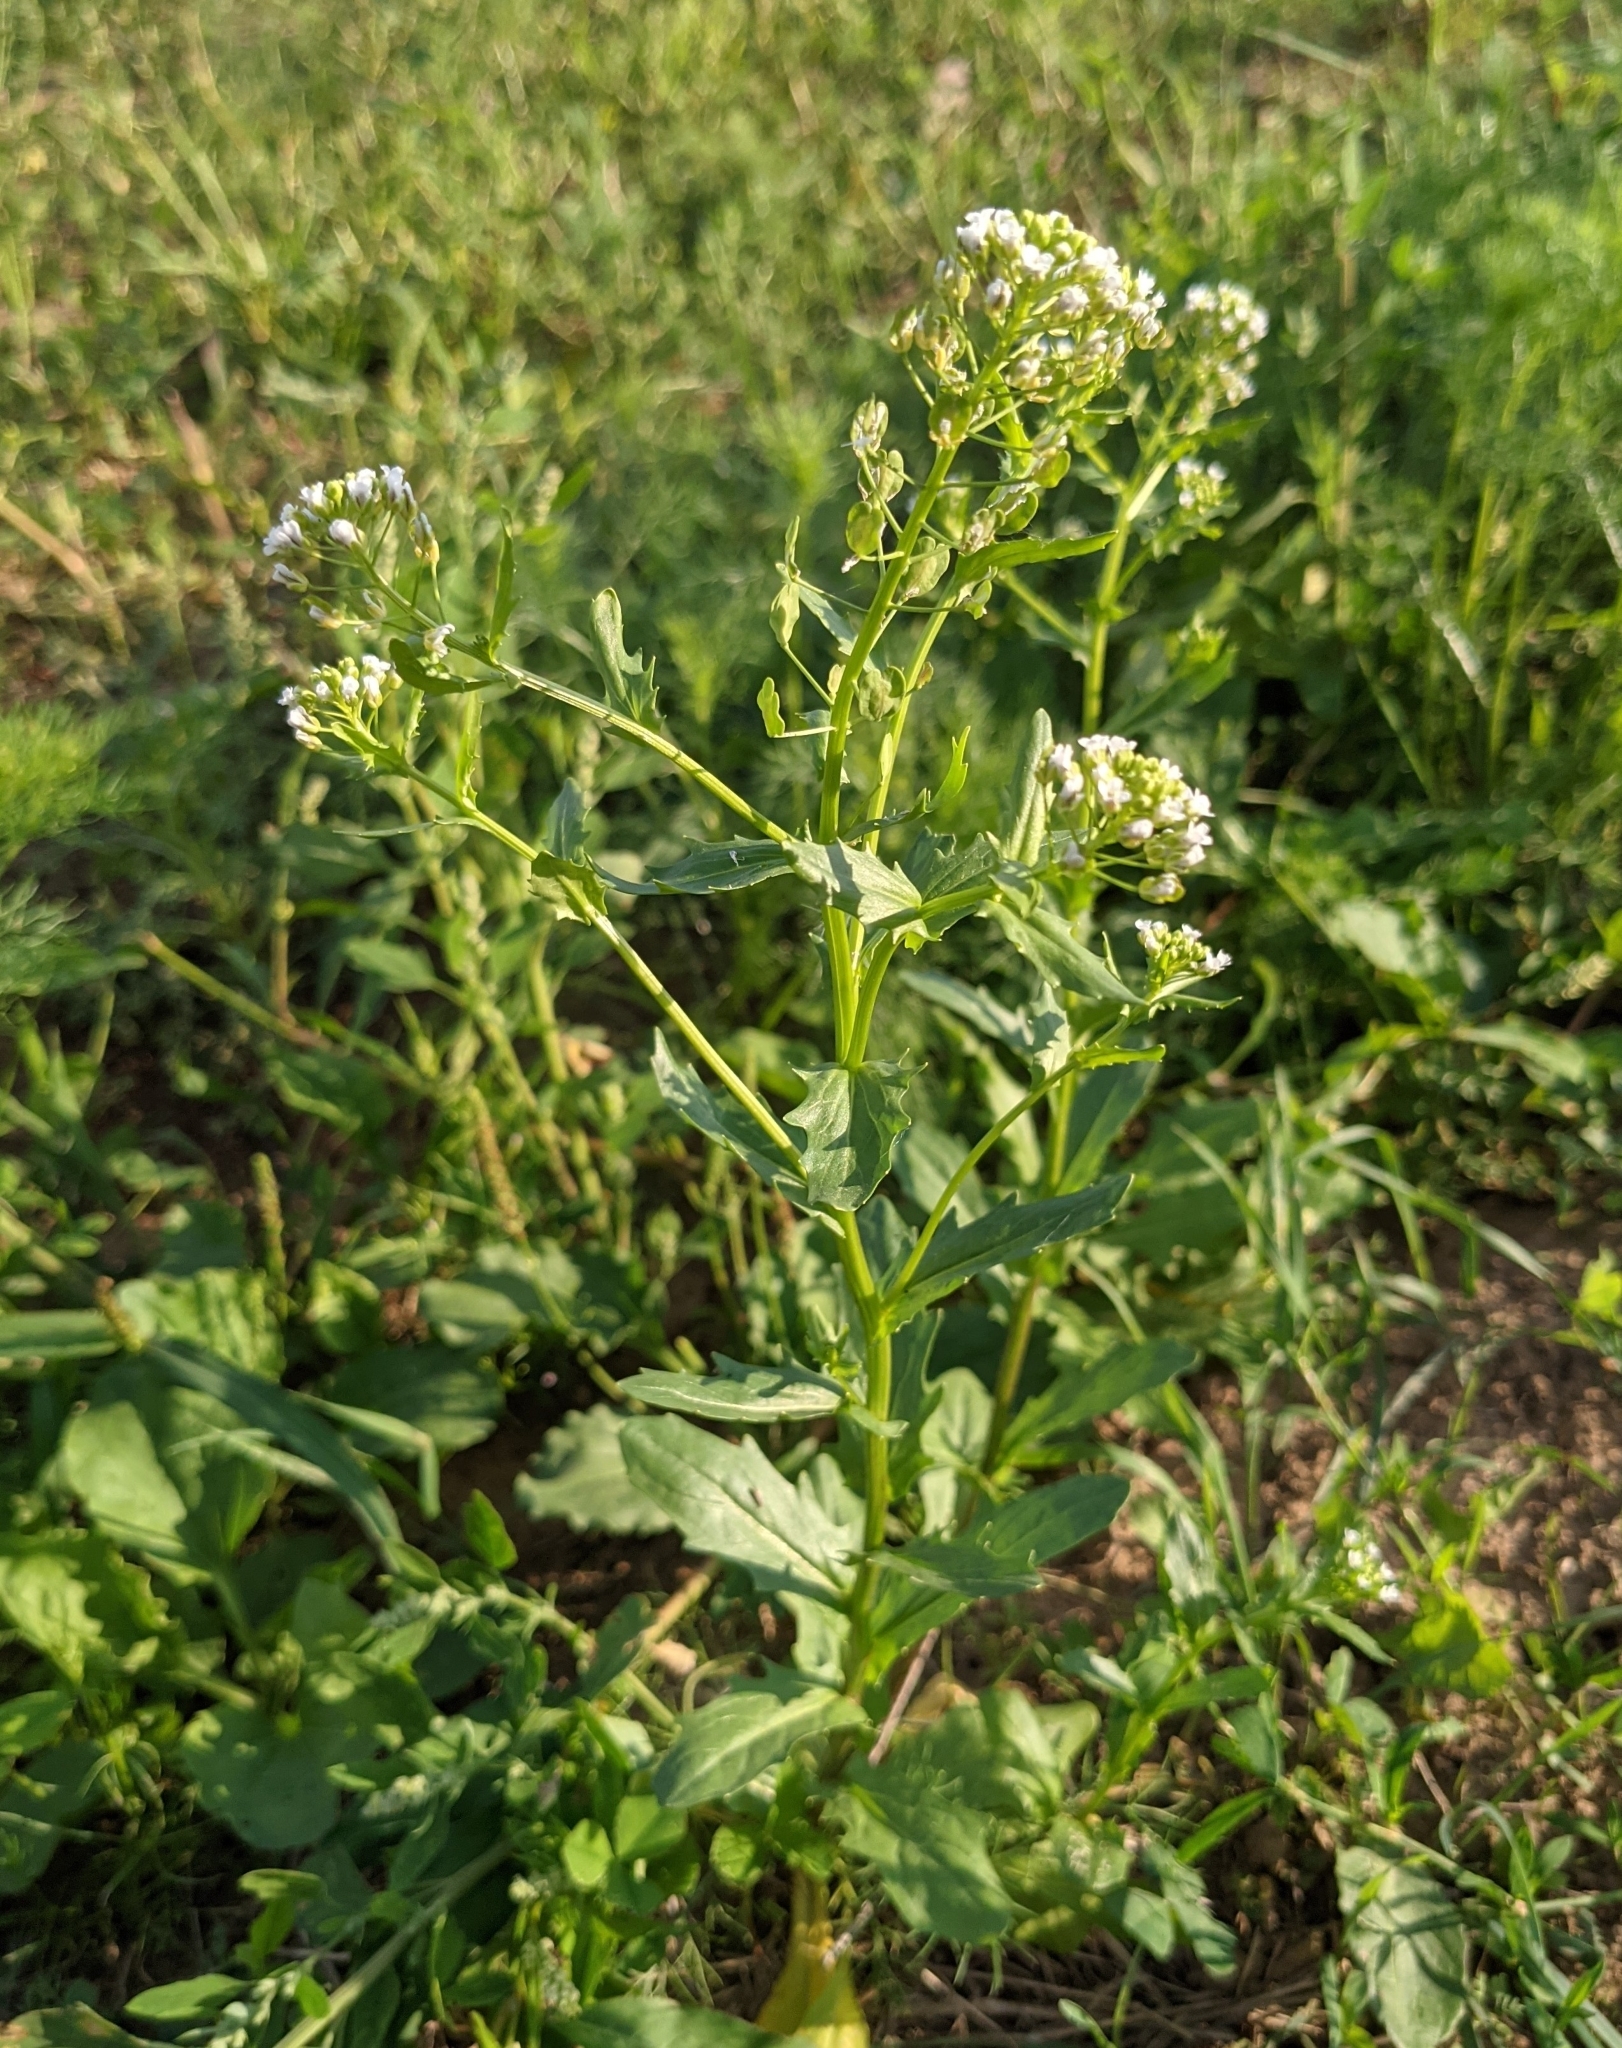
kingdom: Plantae
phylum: Tracheophyta
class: Magnoliopsida
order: Brassicales
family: Brassicaceae
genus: Thlaspi
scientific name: Thlaspi arvense
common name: Field pennycress
